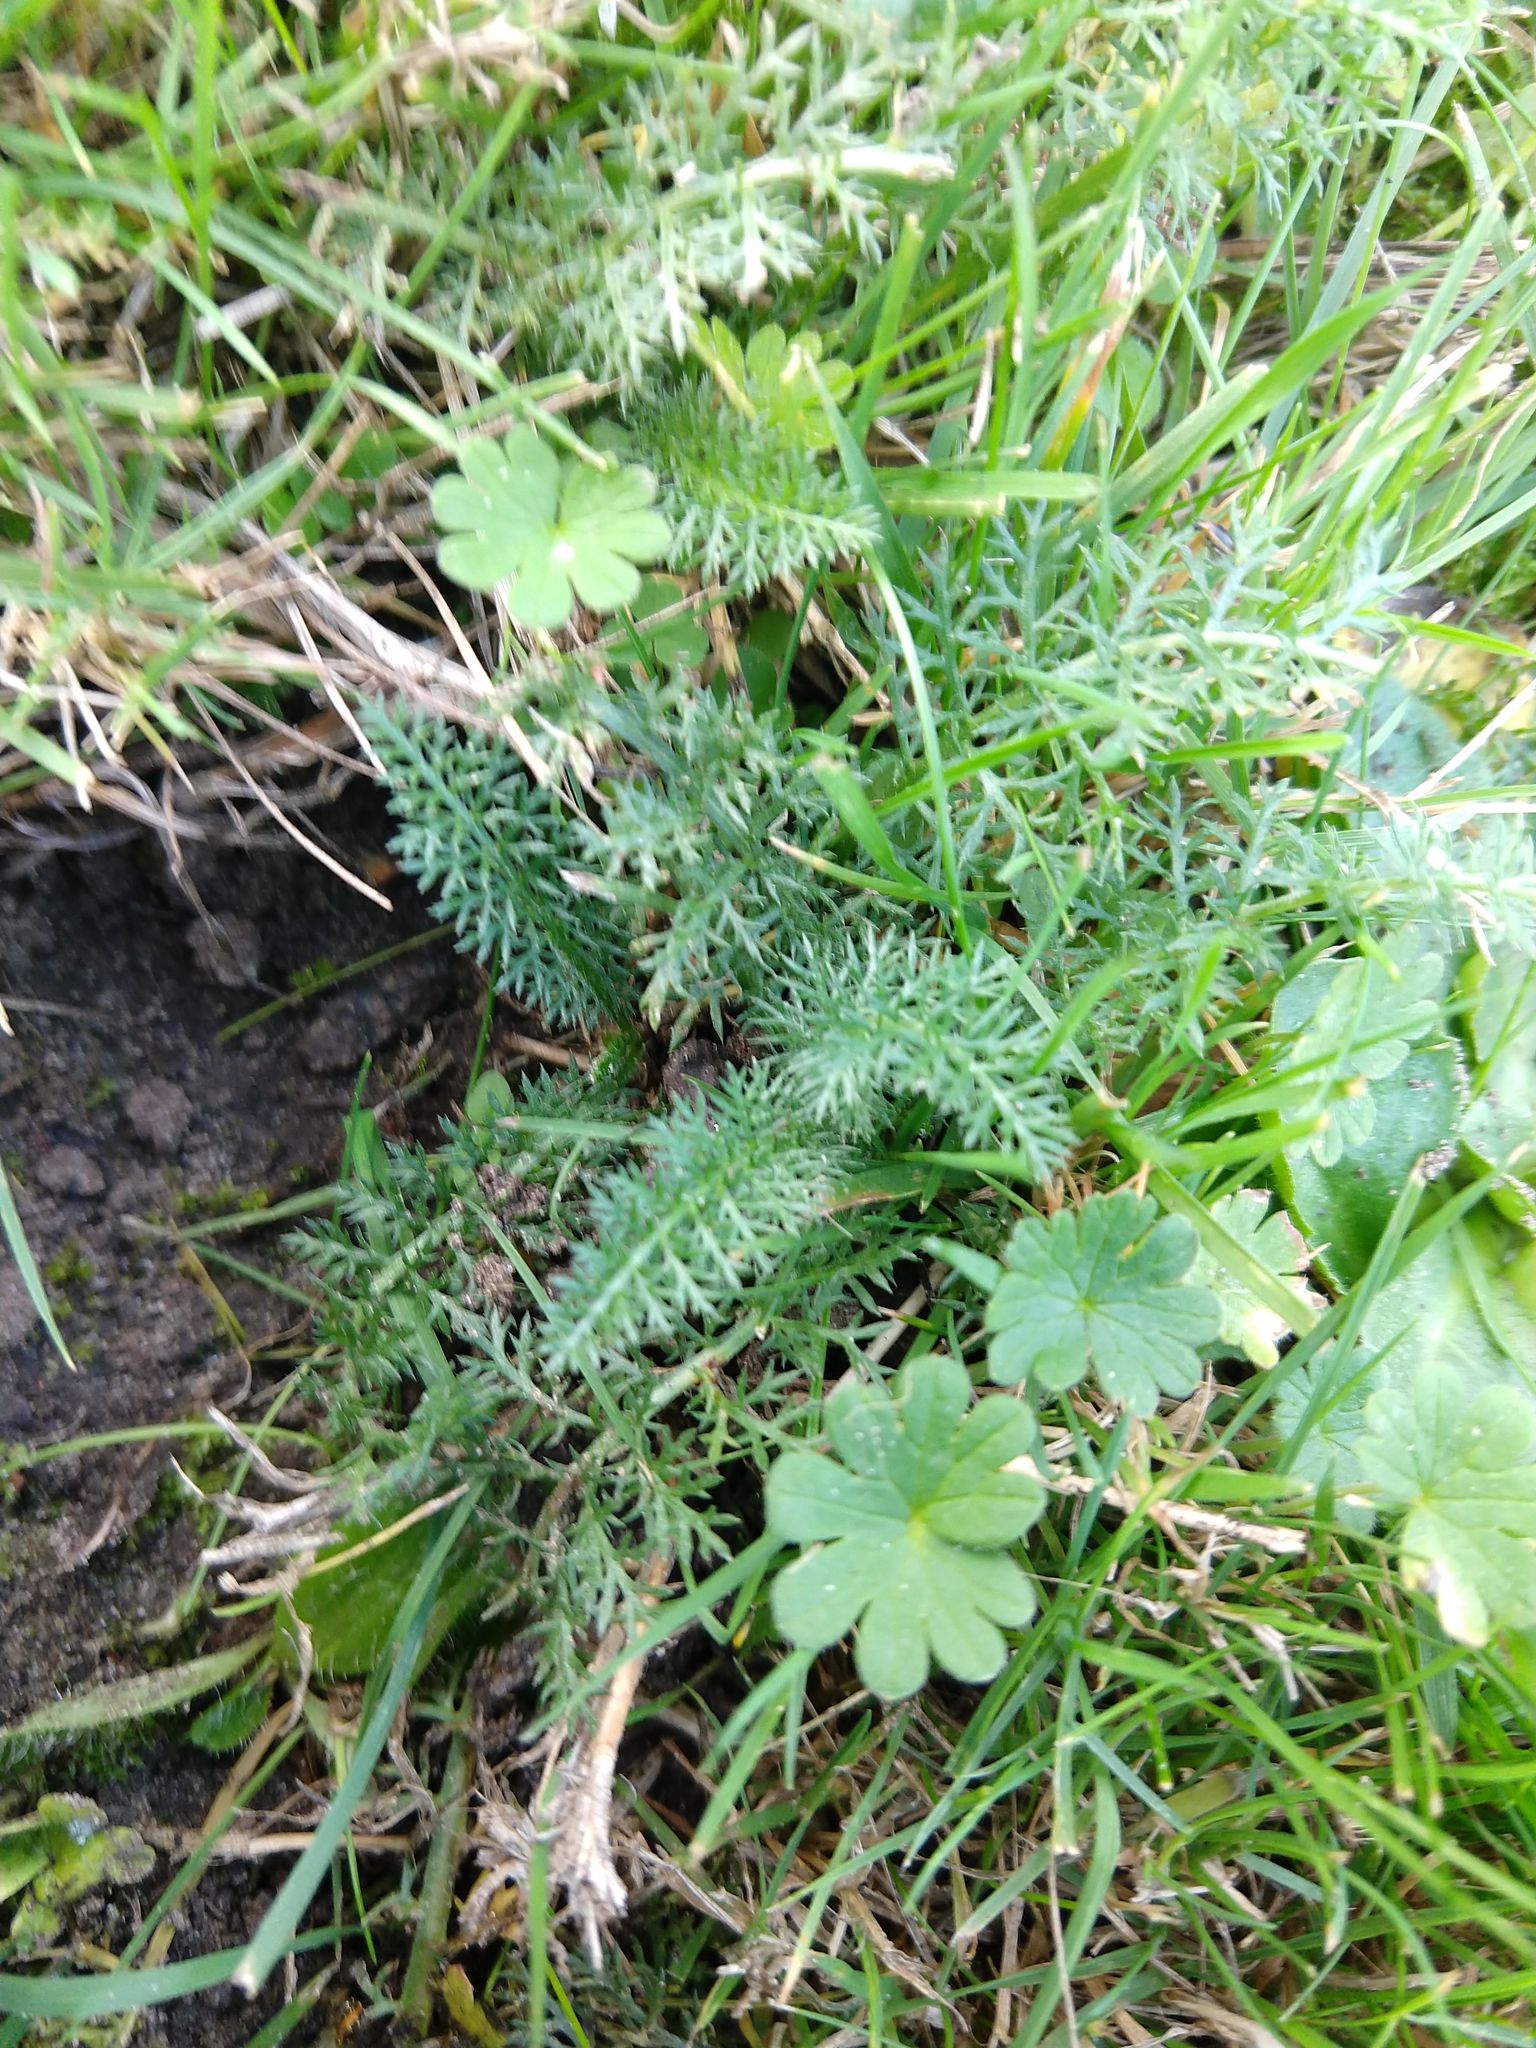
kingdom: Plantae
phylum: Tracheophyta
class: Magnoliopsida
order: Asterales
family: Asteraceae
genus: Achillea
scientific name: Achillea millefolium
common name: Yarrow
